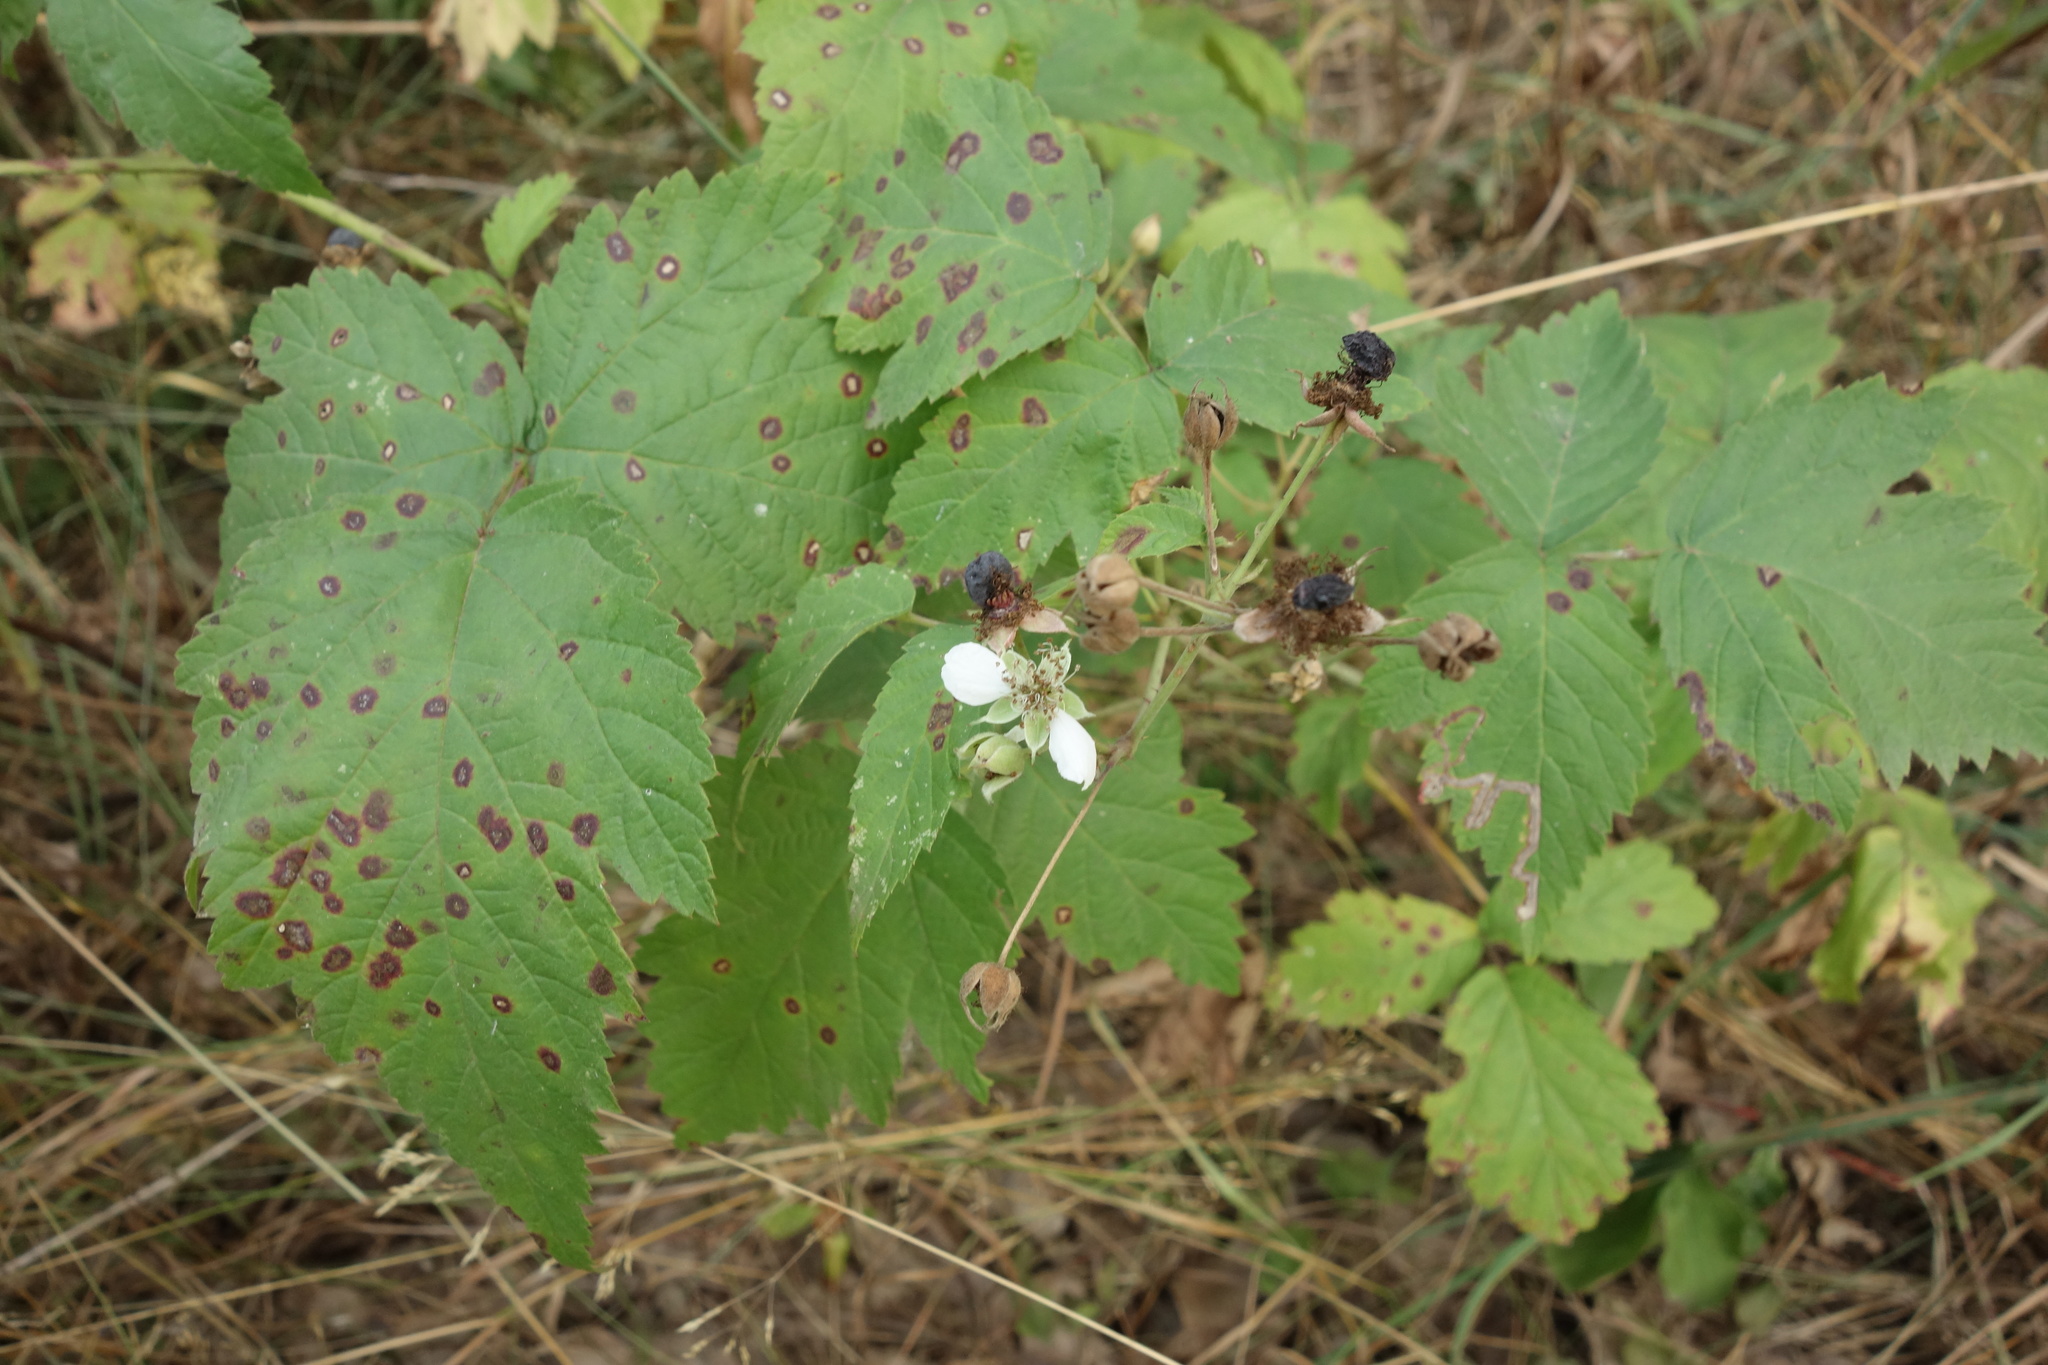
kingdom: Plantae
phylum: Tracheophyta
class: Magnoliopsida
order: Rosales
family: Rosaceae
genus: Rubus
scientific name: Rubus caesius
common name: Dewberry
